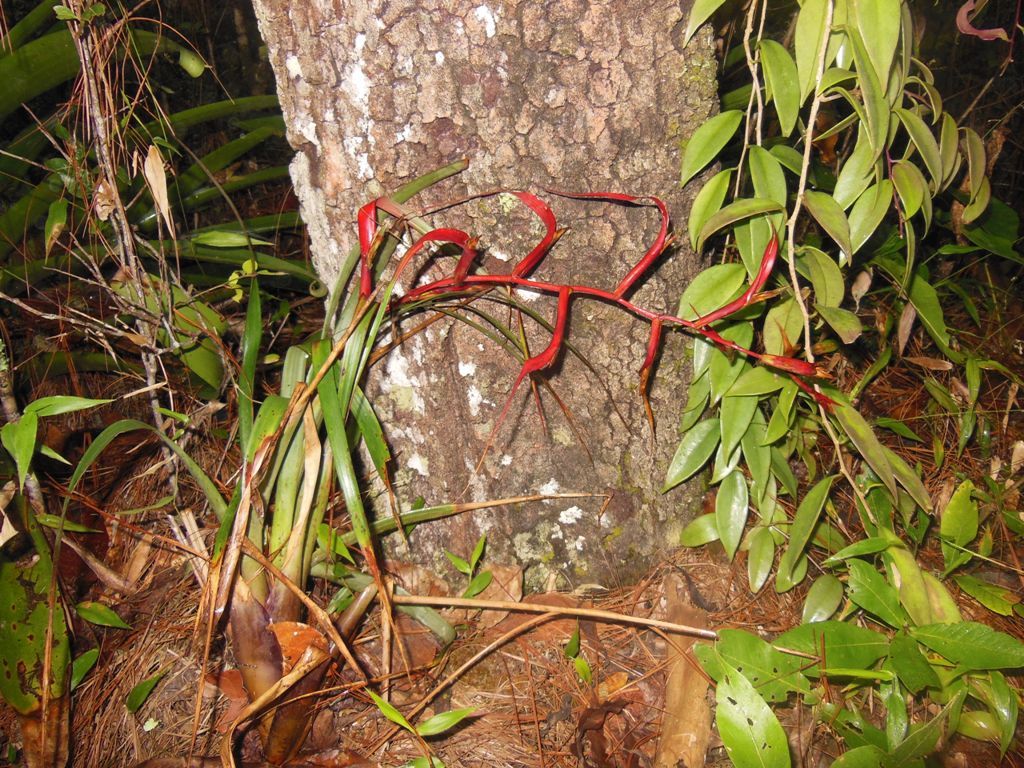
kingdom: Plantae
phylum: Tracheophyta
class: Liliopsida
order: Poales
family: Bromeliaceae
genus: Tillandsia
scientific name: Tillandsia leiboldiana
